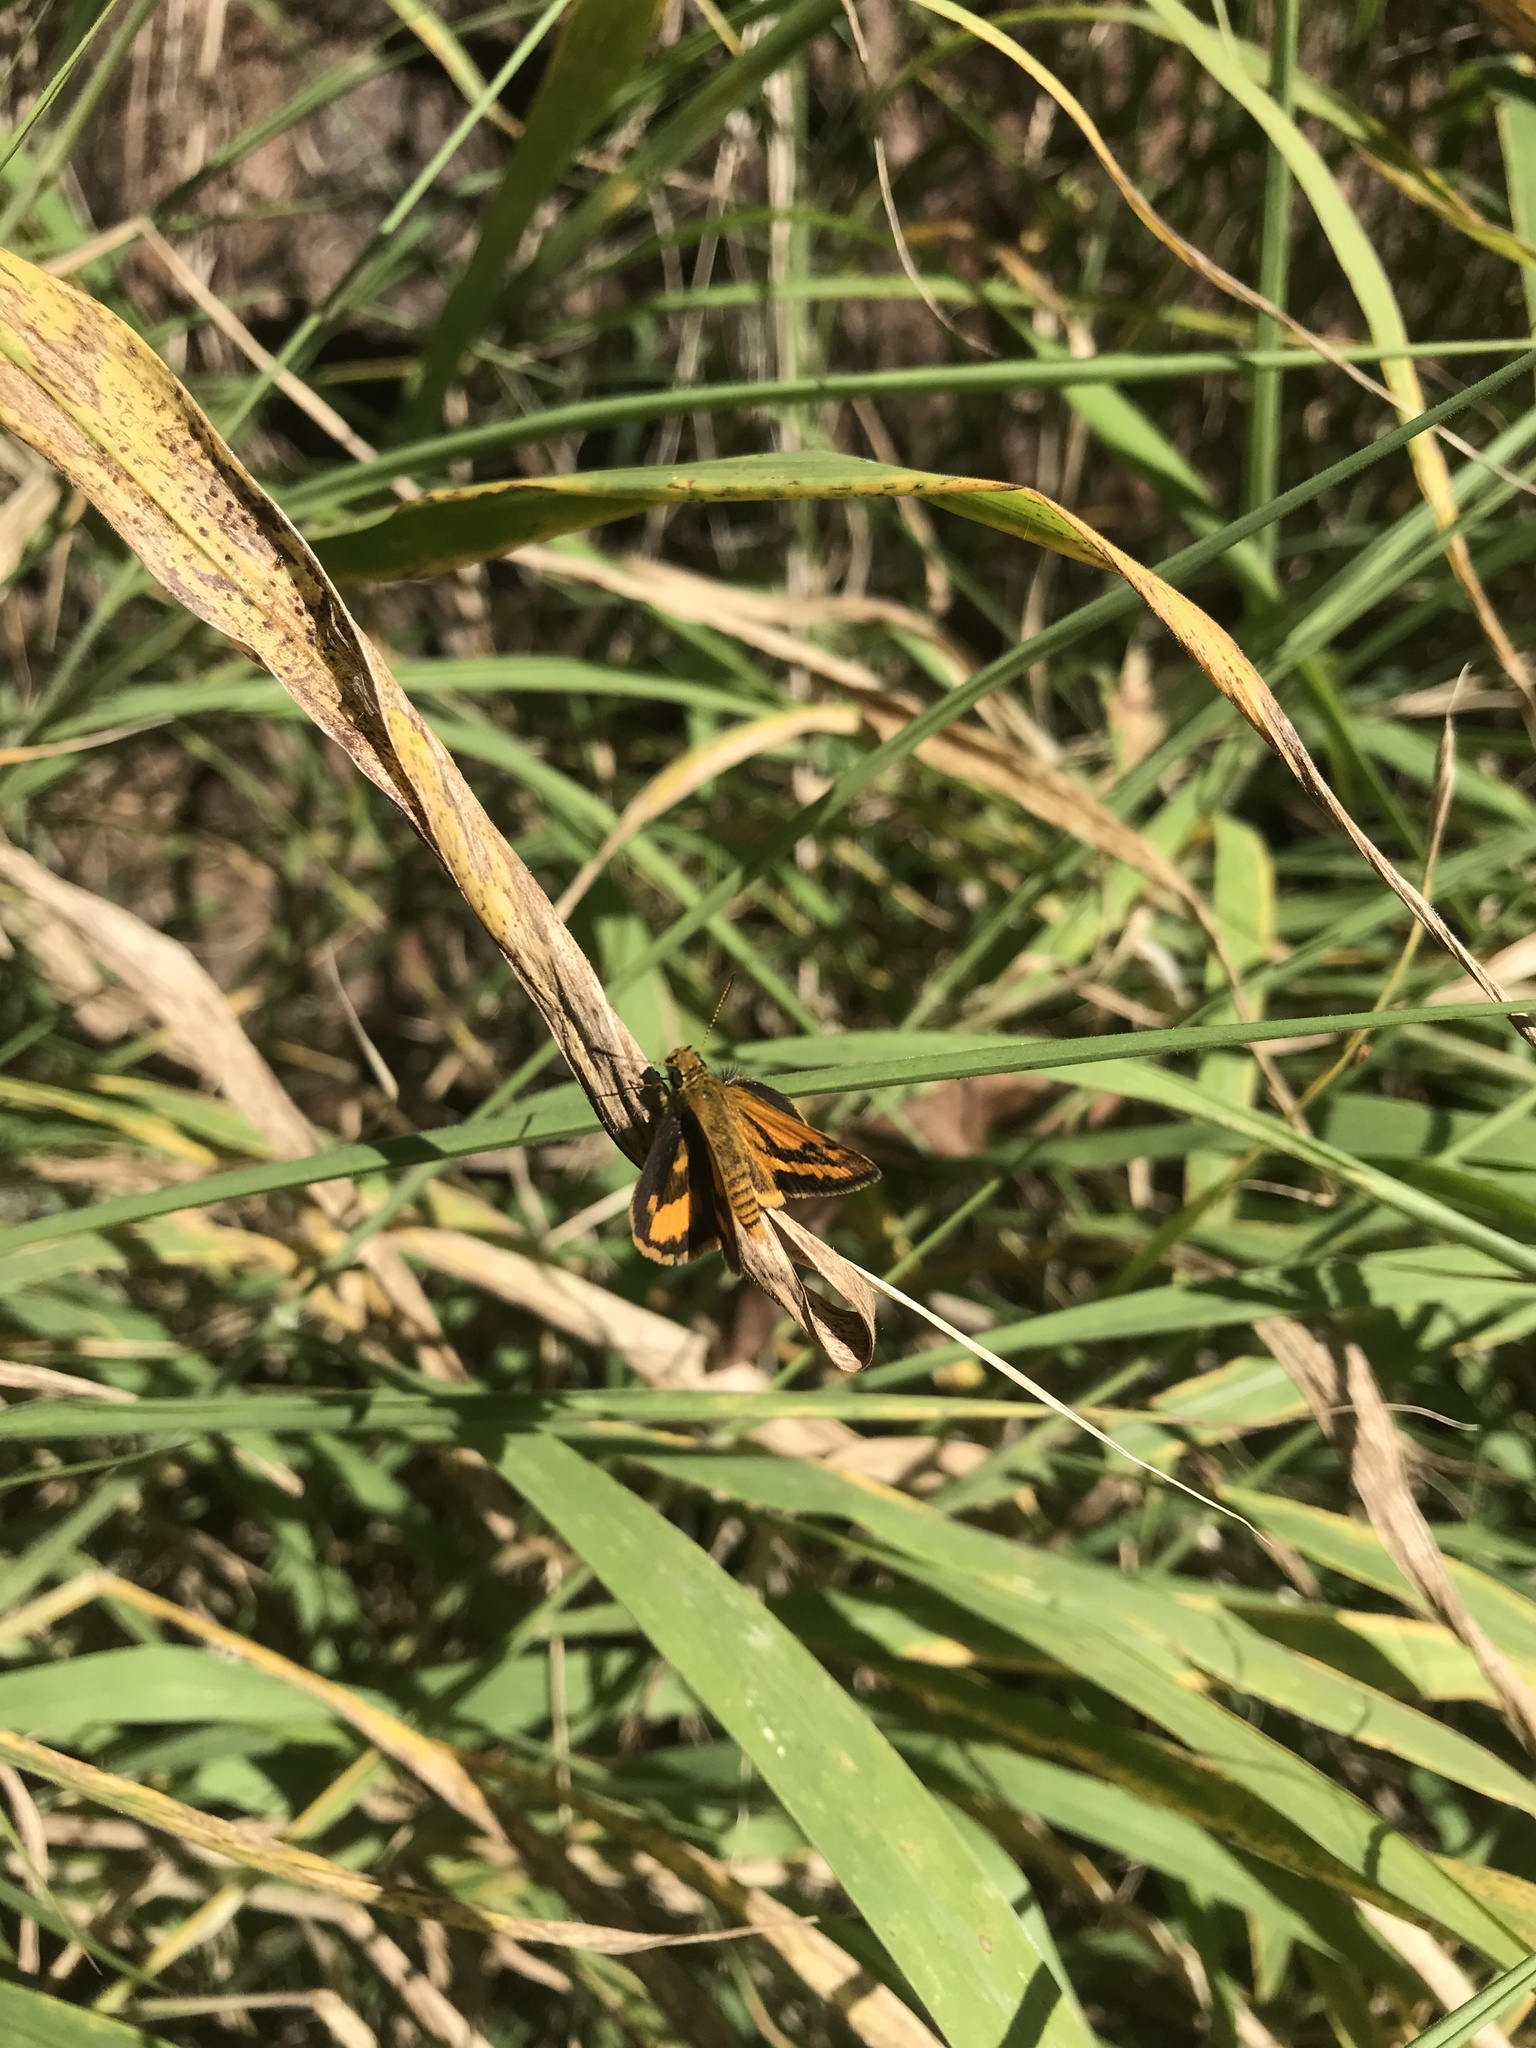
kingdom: Animalia
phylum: Arthropoda
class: Insecta
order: Lepidoptera
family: Hesperiidae
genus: Suniana
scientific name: Suniana sunias
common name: Wide-brand grass-dart
